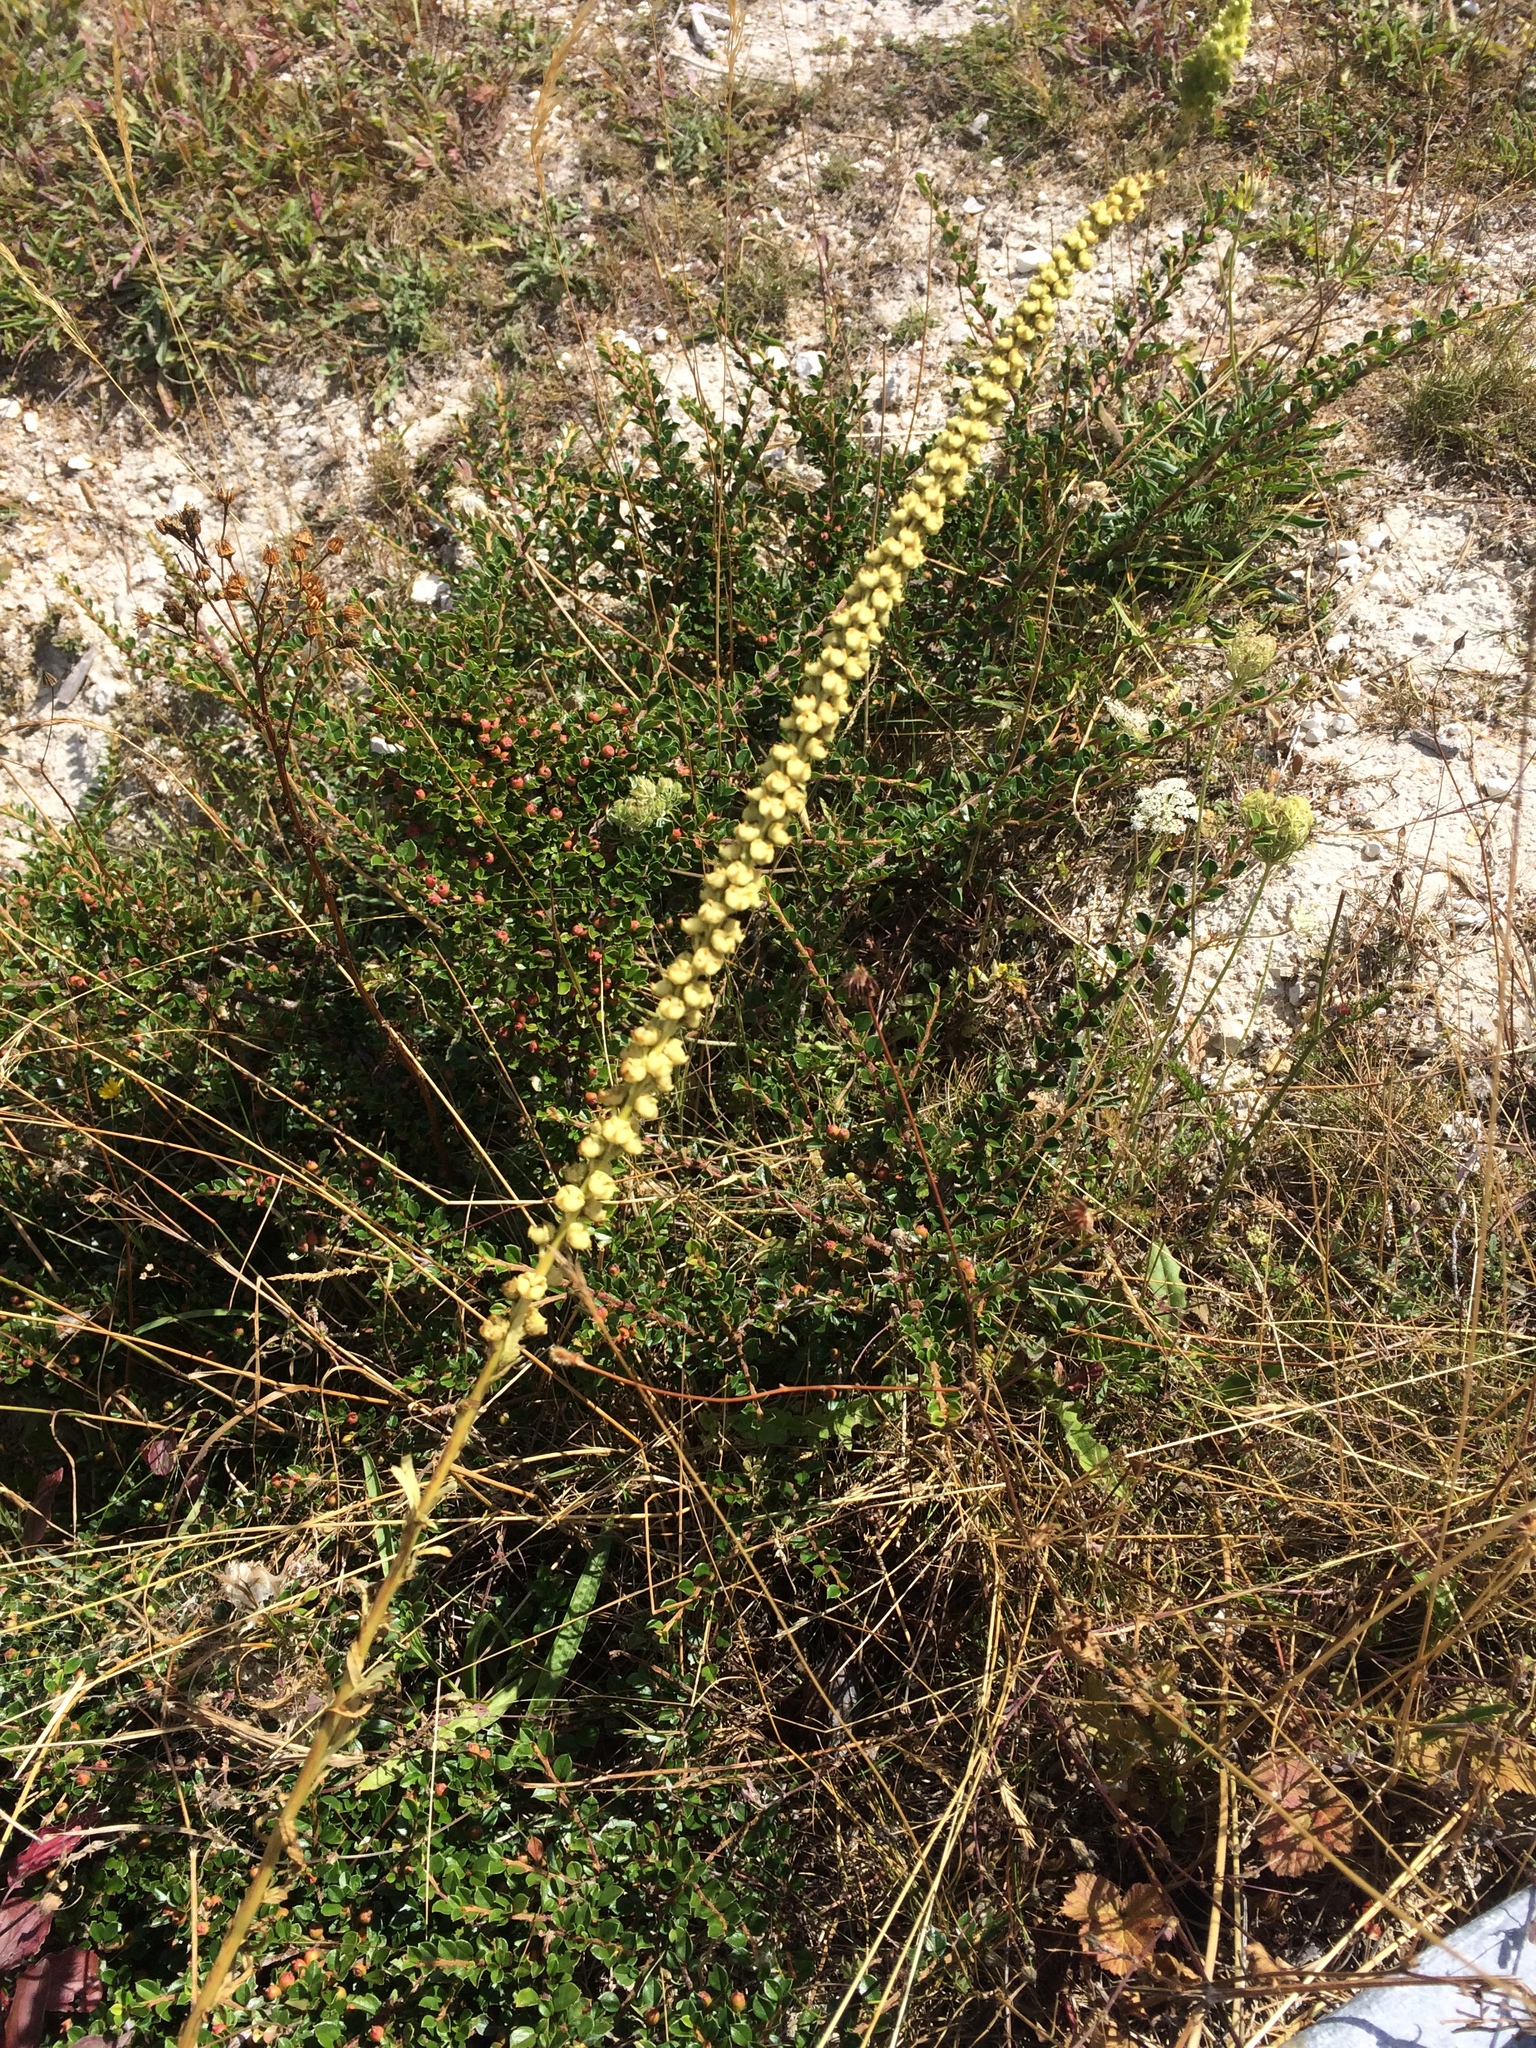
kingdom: Plantae
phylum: Tracheophyta
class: Magnoliopsida
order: Brassicales
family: Resedaceae
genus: Reseda
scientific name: Reseda luteola
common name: Weld
